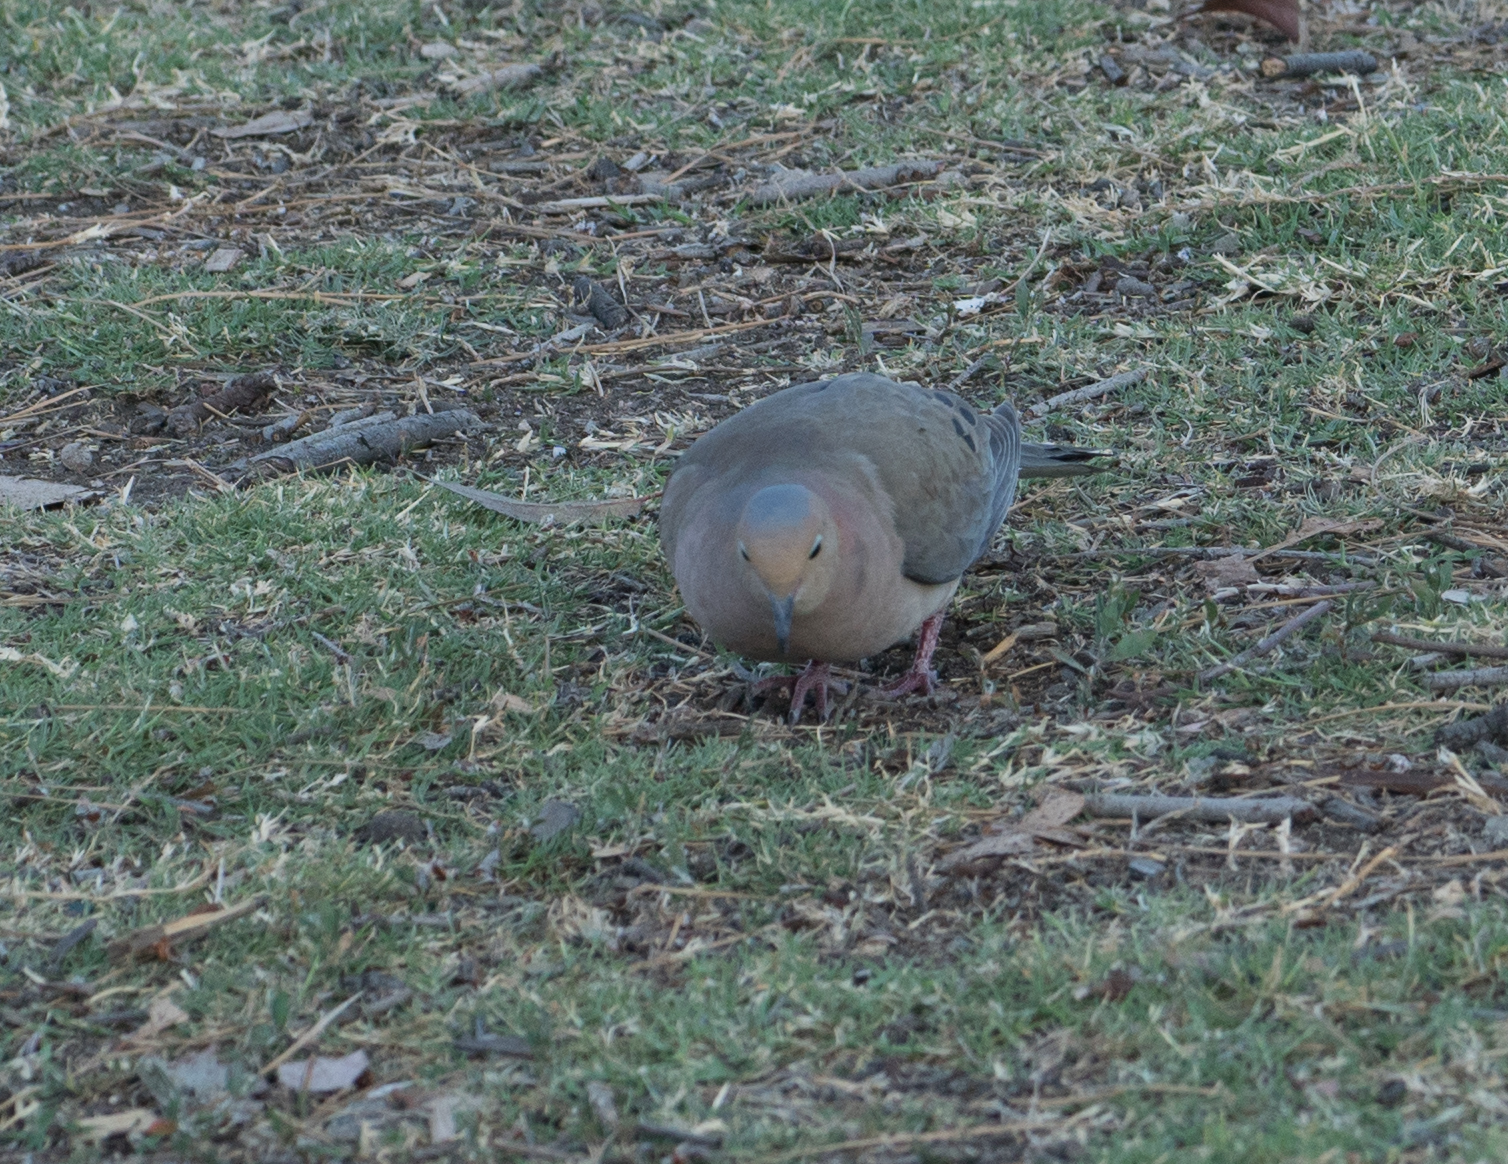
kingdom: Animalia
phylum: Chordata
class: Aves
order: Columbiformes
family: Columbidae
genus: Zenaida
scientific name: Zenaida macroura
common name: Mourning dove
